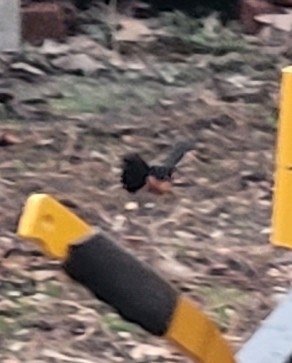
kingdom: Animalia
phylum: Chordata
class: Aves
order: Passeriformes
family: Passerellidae
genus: Pipilo
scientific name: Pipilo erythrophthalmus
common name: Eastern towhee
